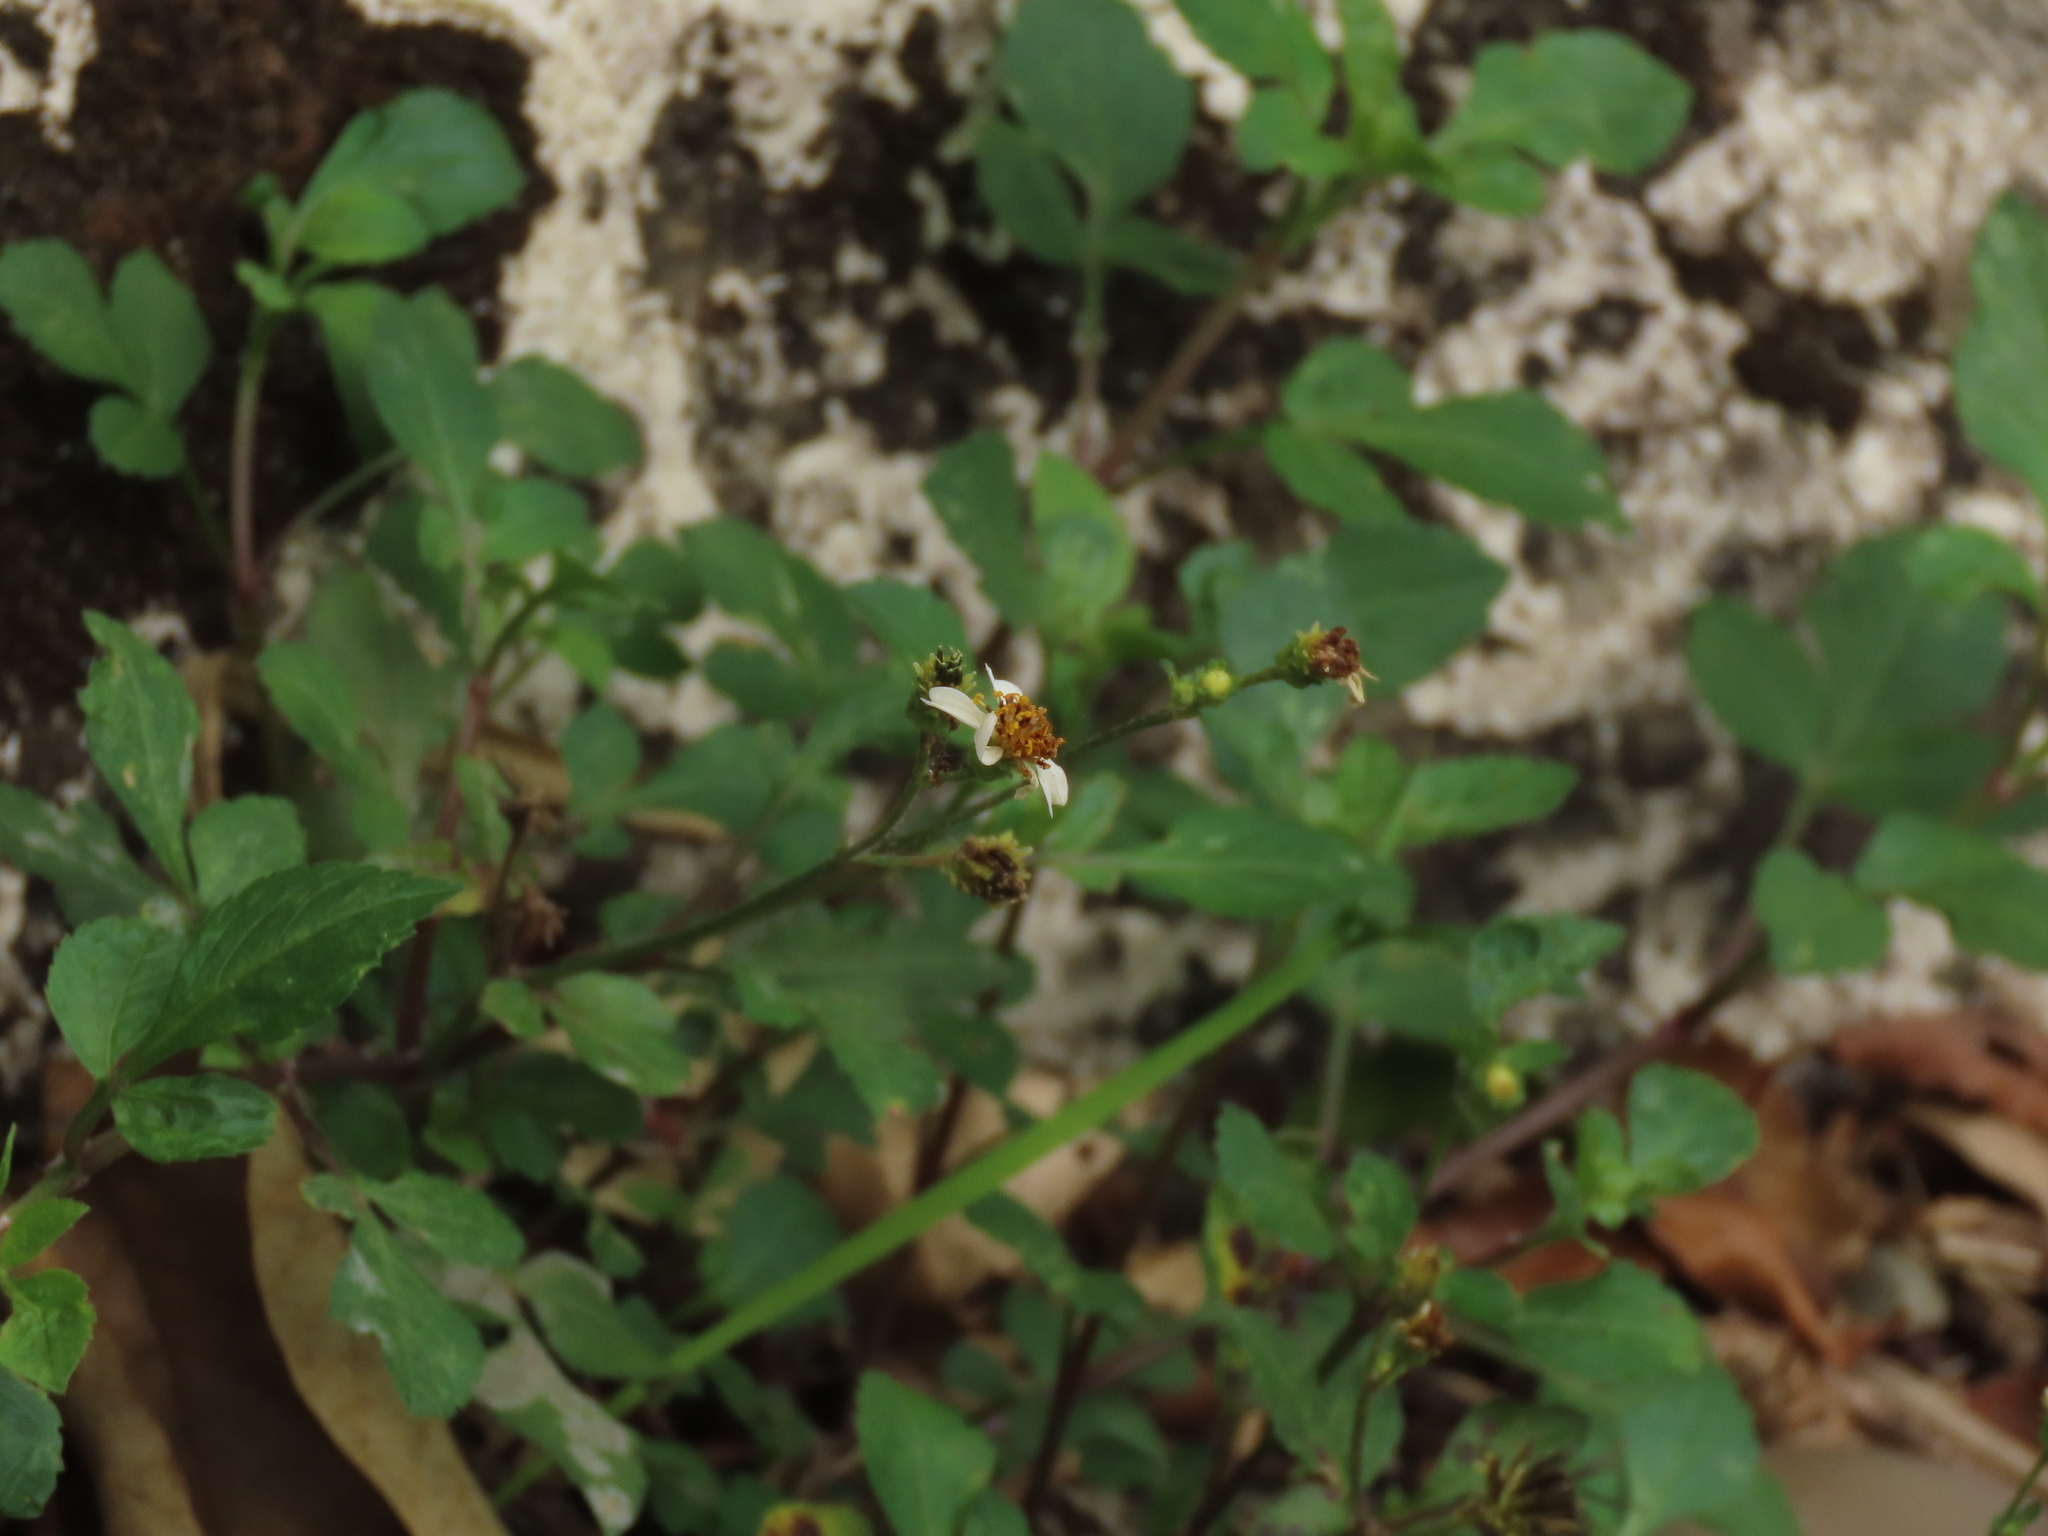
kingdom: Plantae
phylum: Tracheophyta
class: Magnoliopsida
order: Asterales
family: Asteraceae
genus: Bidens
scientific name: Bidens alba
